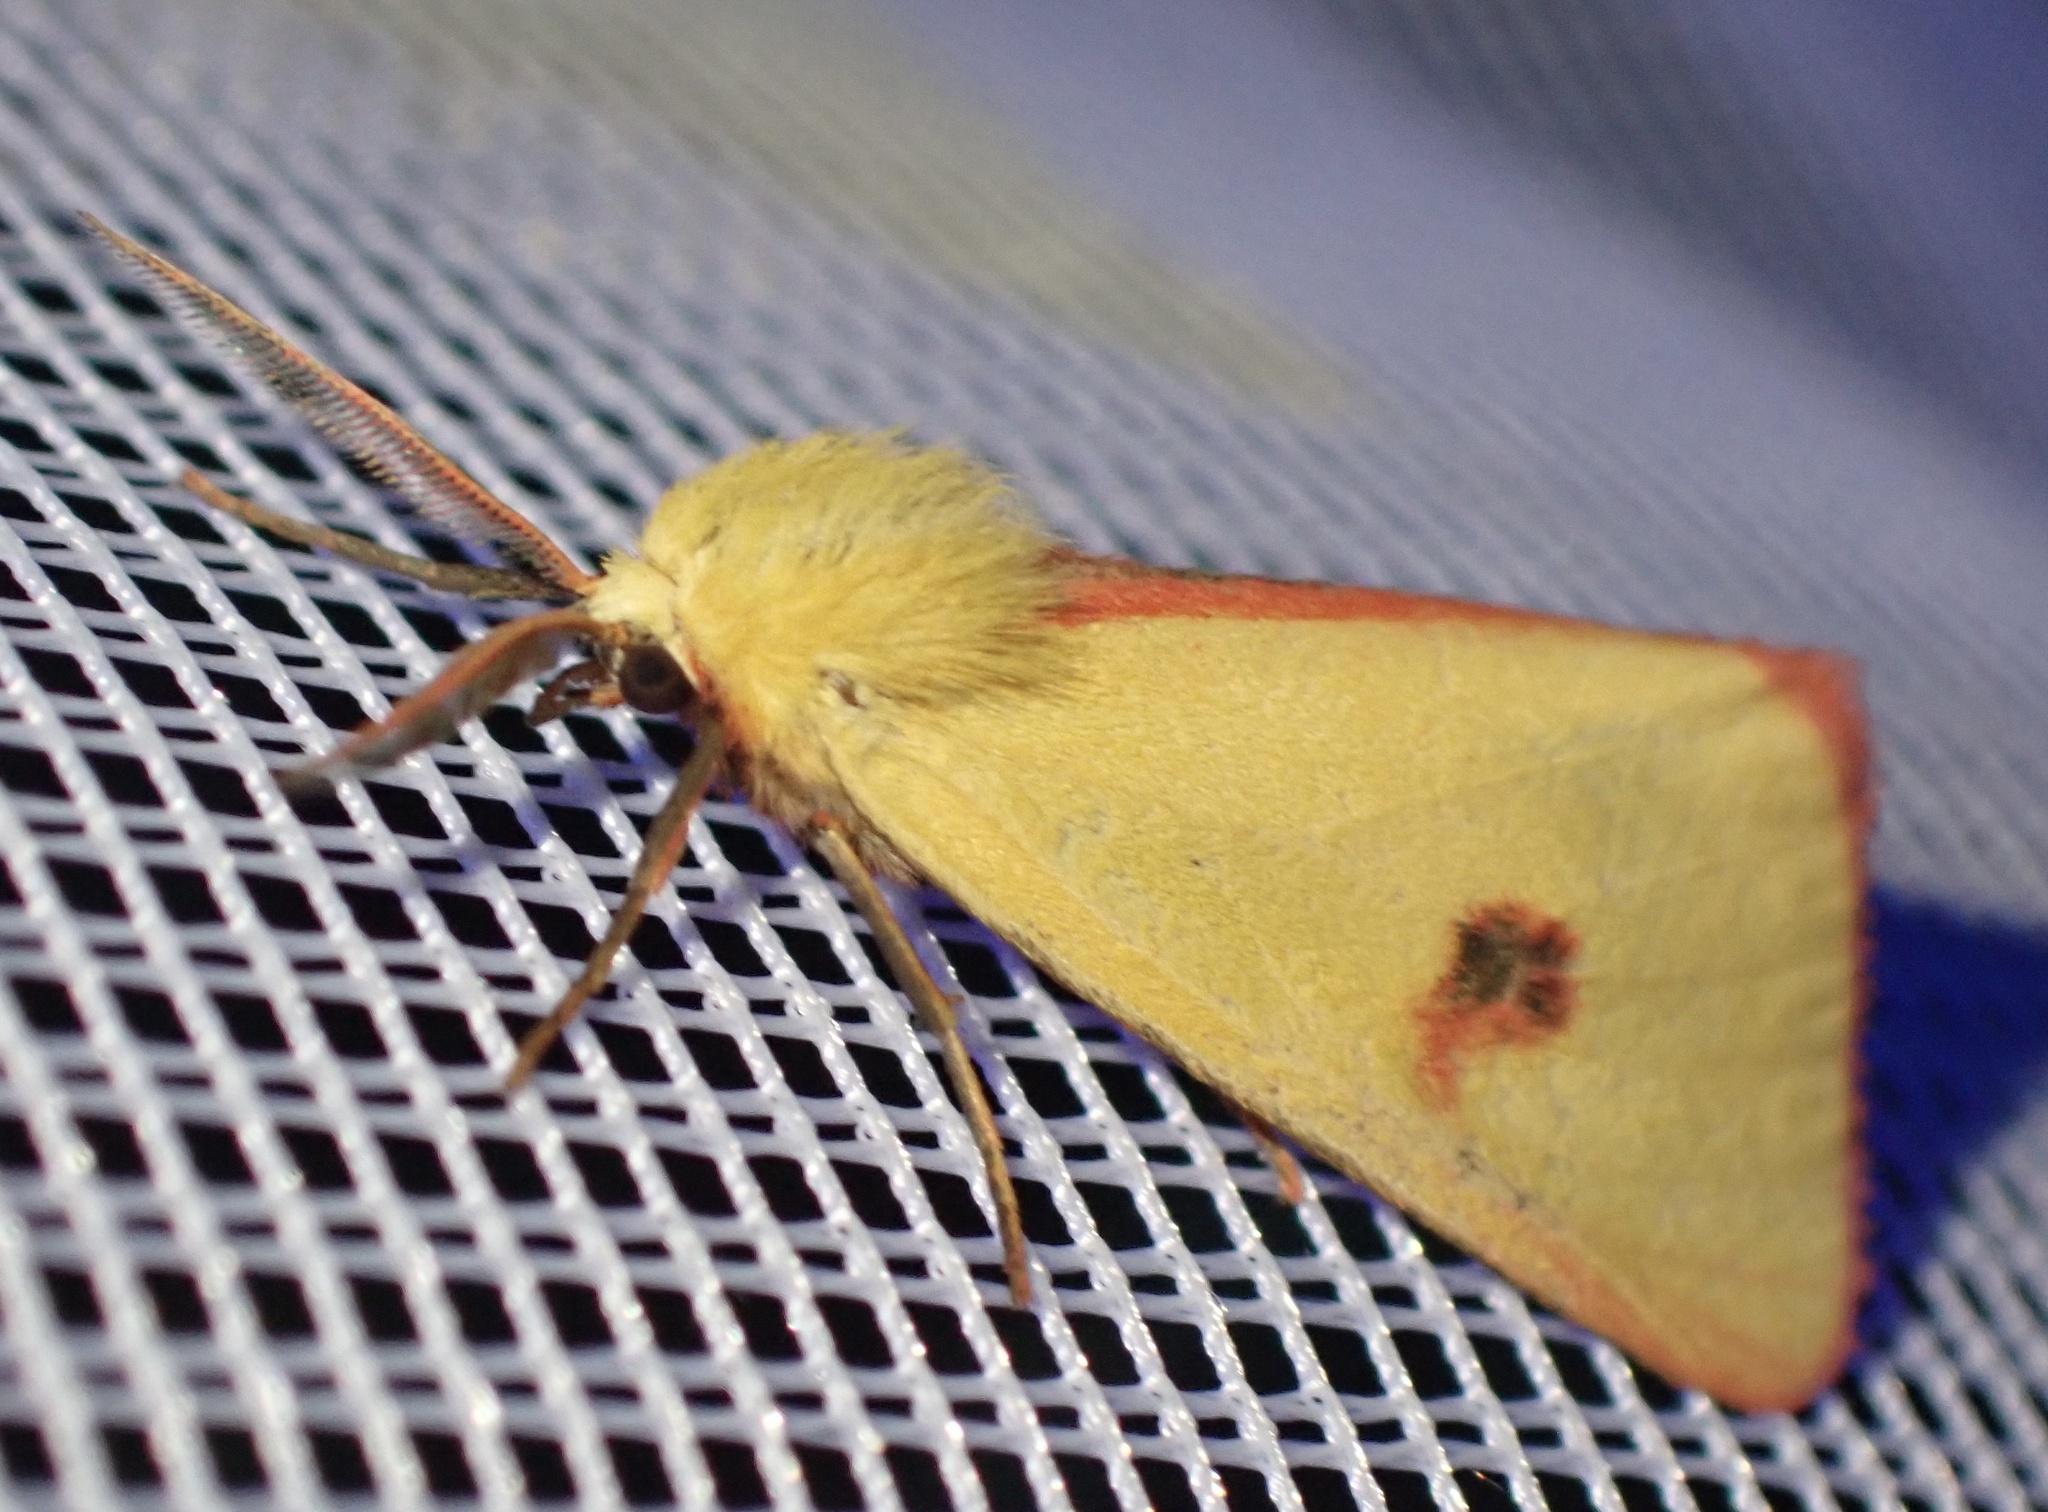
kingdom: Animalia
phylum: Arthropoda
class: Insecta
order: Lepidoptera
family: Erebidae
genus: Diacrisia
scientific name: Diacrisia sannio
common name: Clouded buff
